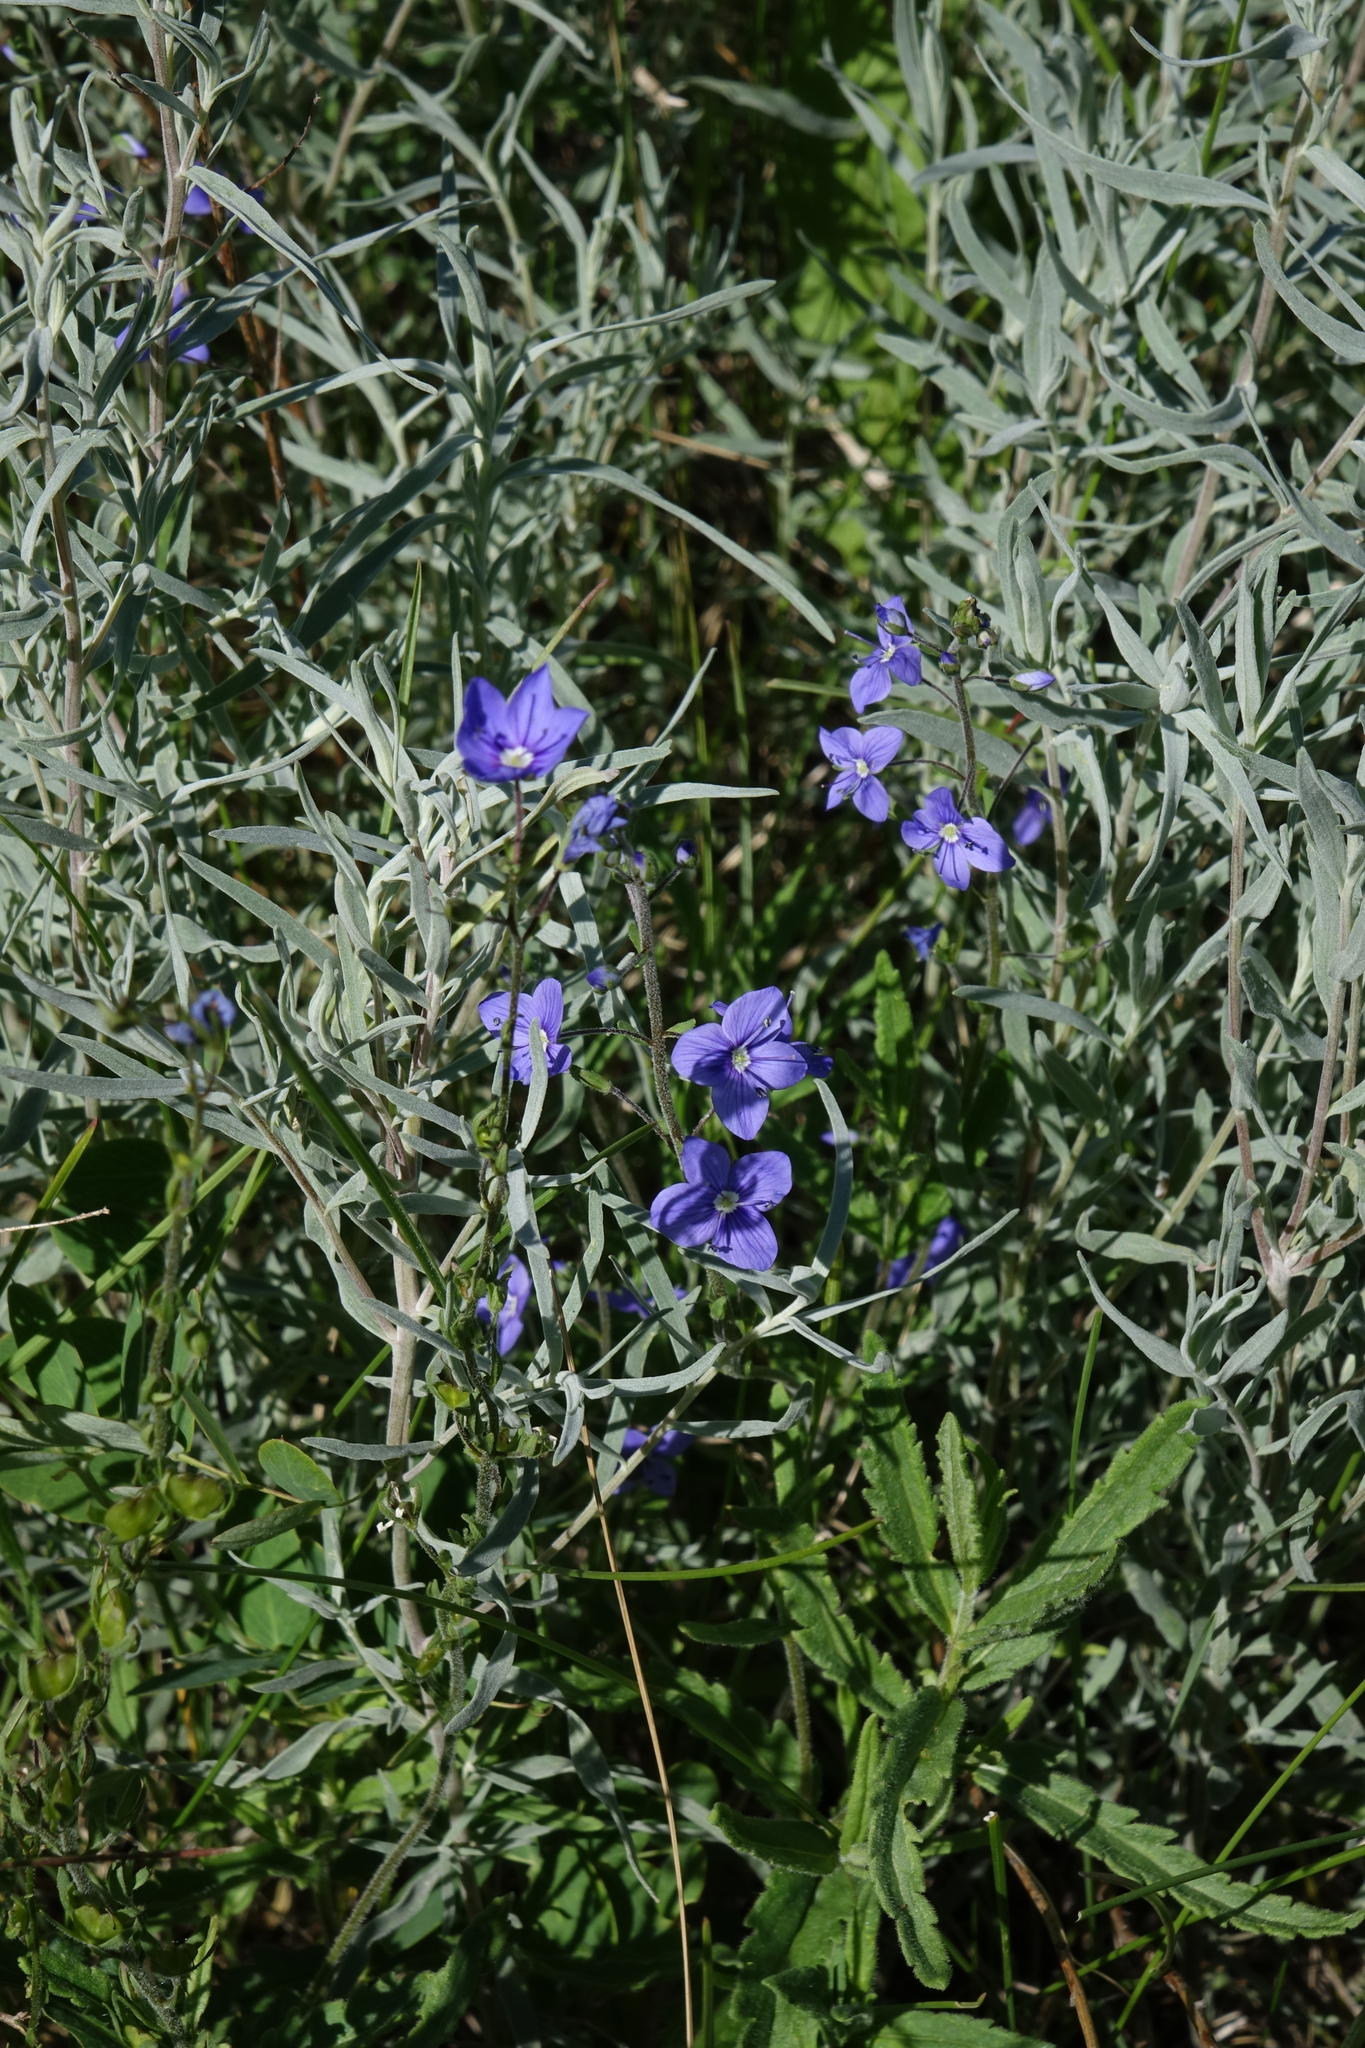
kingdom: Plantae
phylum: Tracheophyta
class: Magnoliopsida
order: Lamiales
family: Plantaginaceae
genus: Veronica
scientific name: Veronica krylovii
